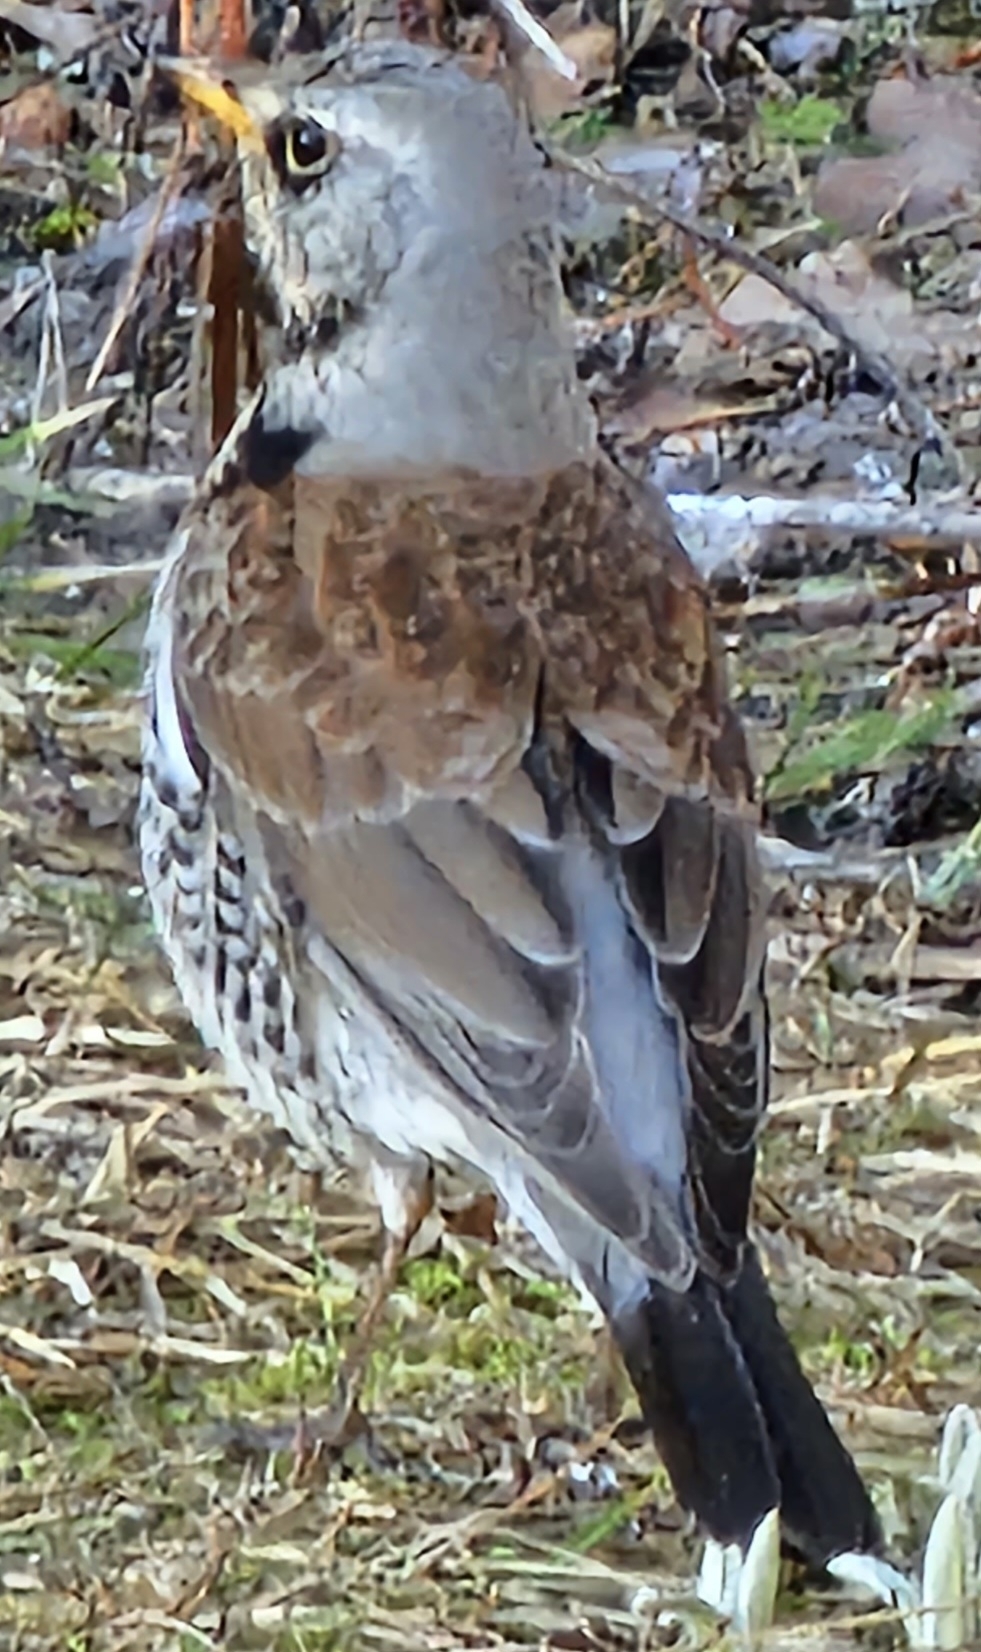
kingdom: Animalia
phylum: Chordata
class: Aves
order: Passeriformes
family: Turdidae
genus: Turdus
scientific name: Turdus pilaris
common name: Fieldfare
